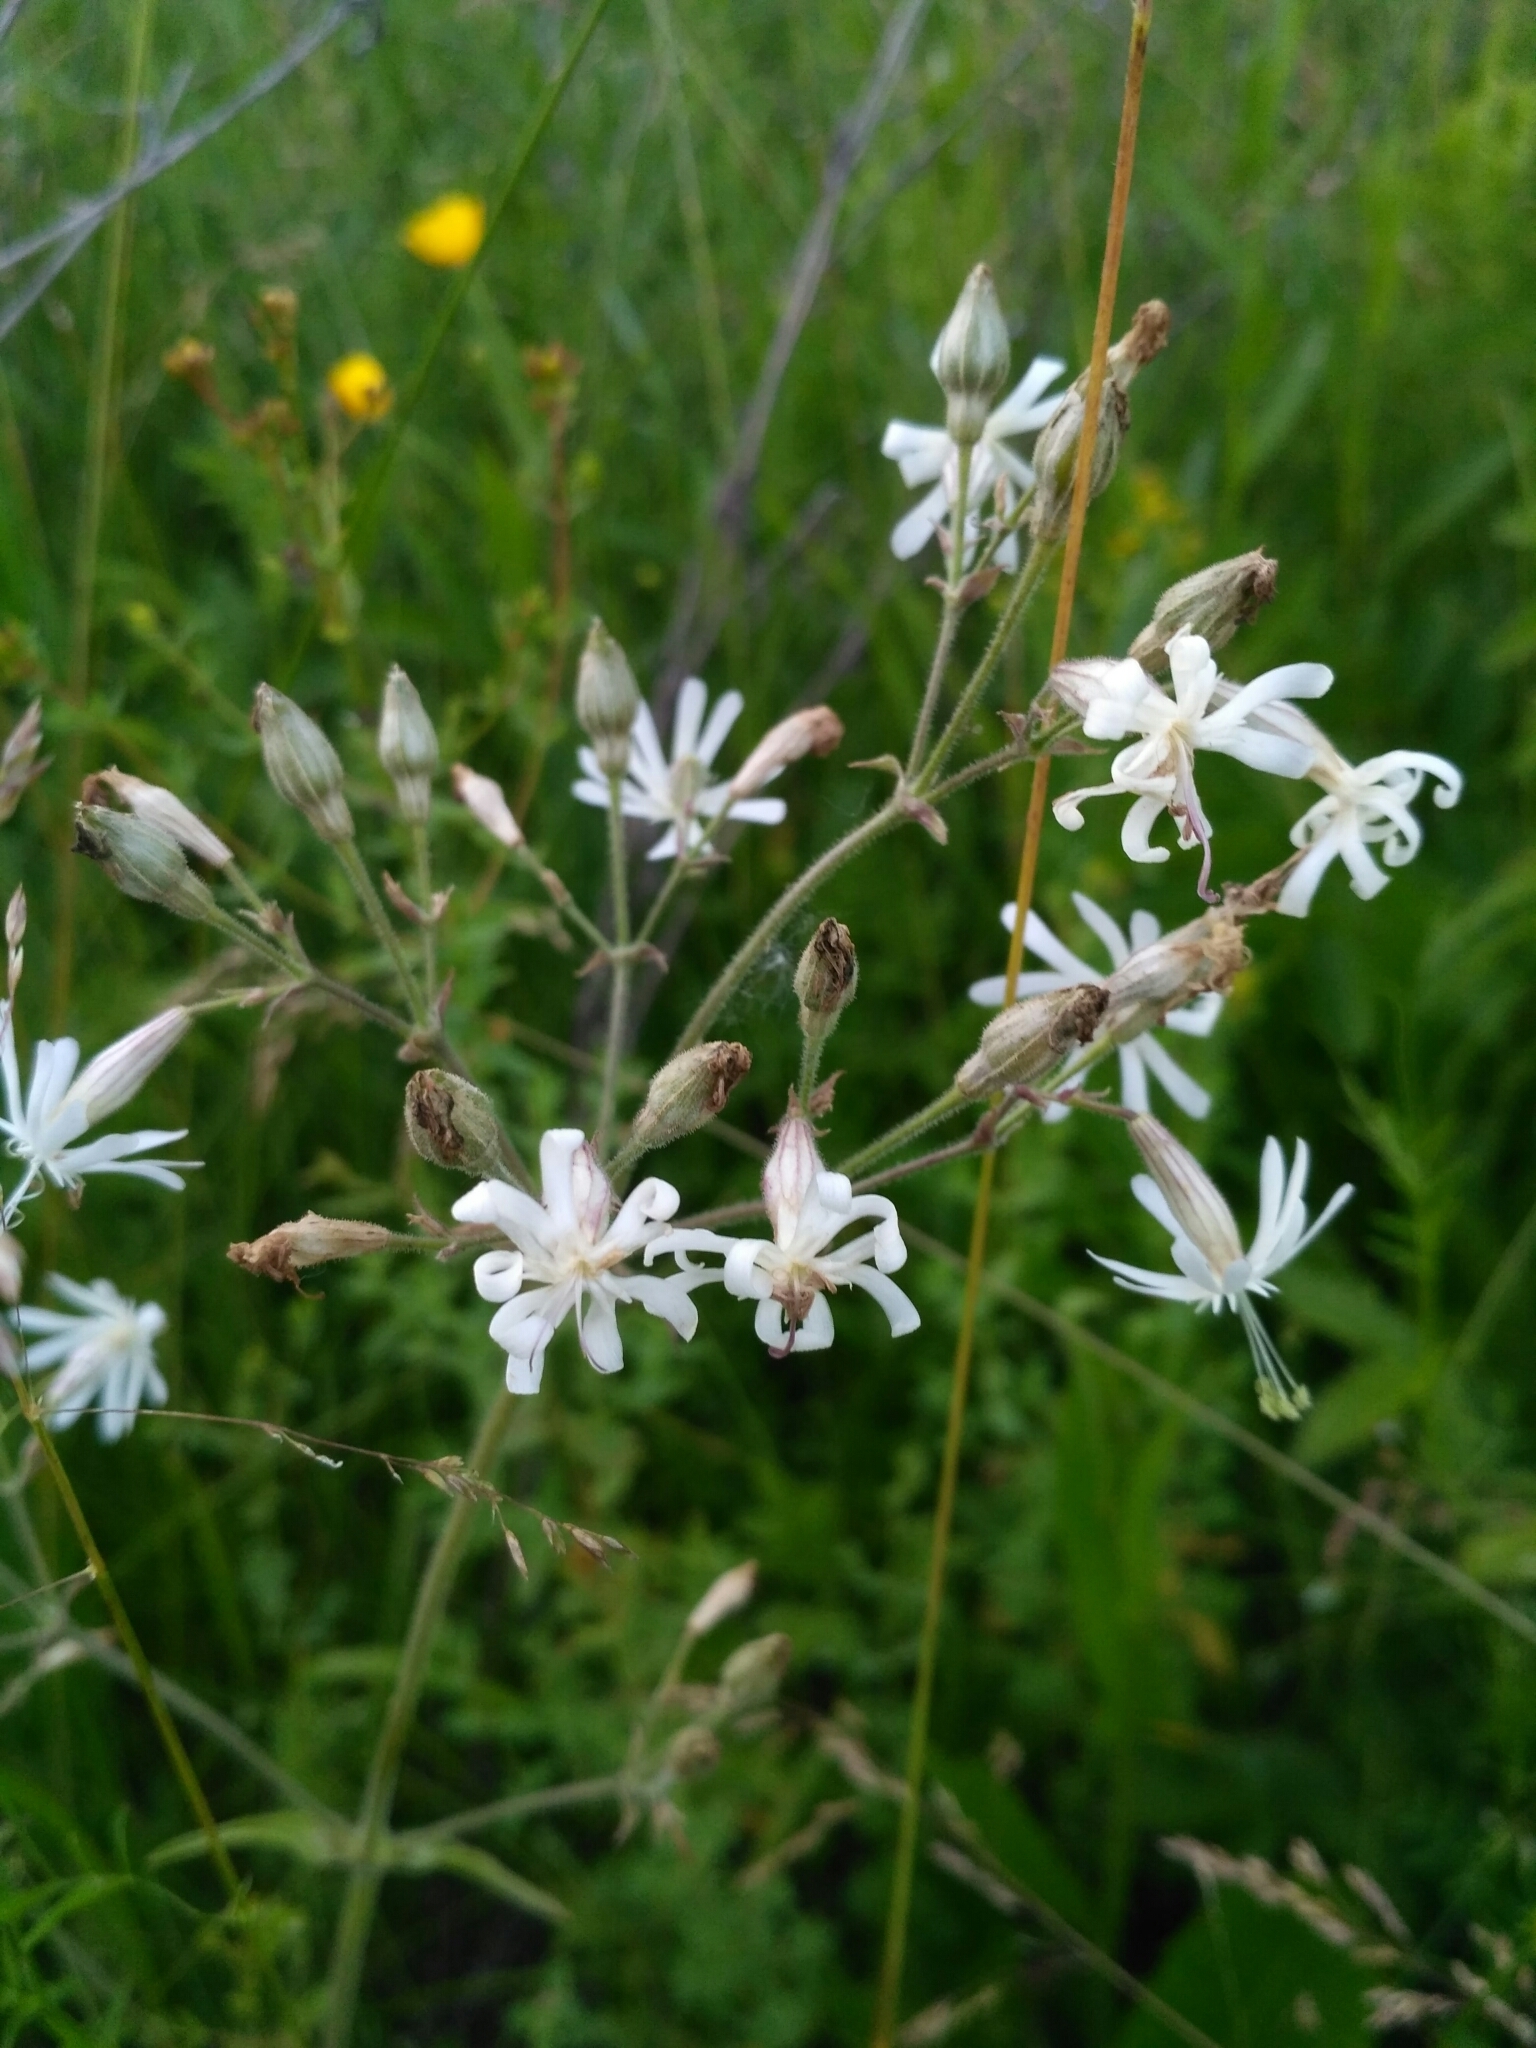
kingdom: Plantae
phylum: Tracheophyta
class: Magnoliopsida
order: Caryophyllales
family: Caryophyllaceae
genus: Silene
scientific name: Silene nutans
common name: Nottingham catchfly
